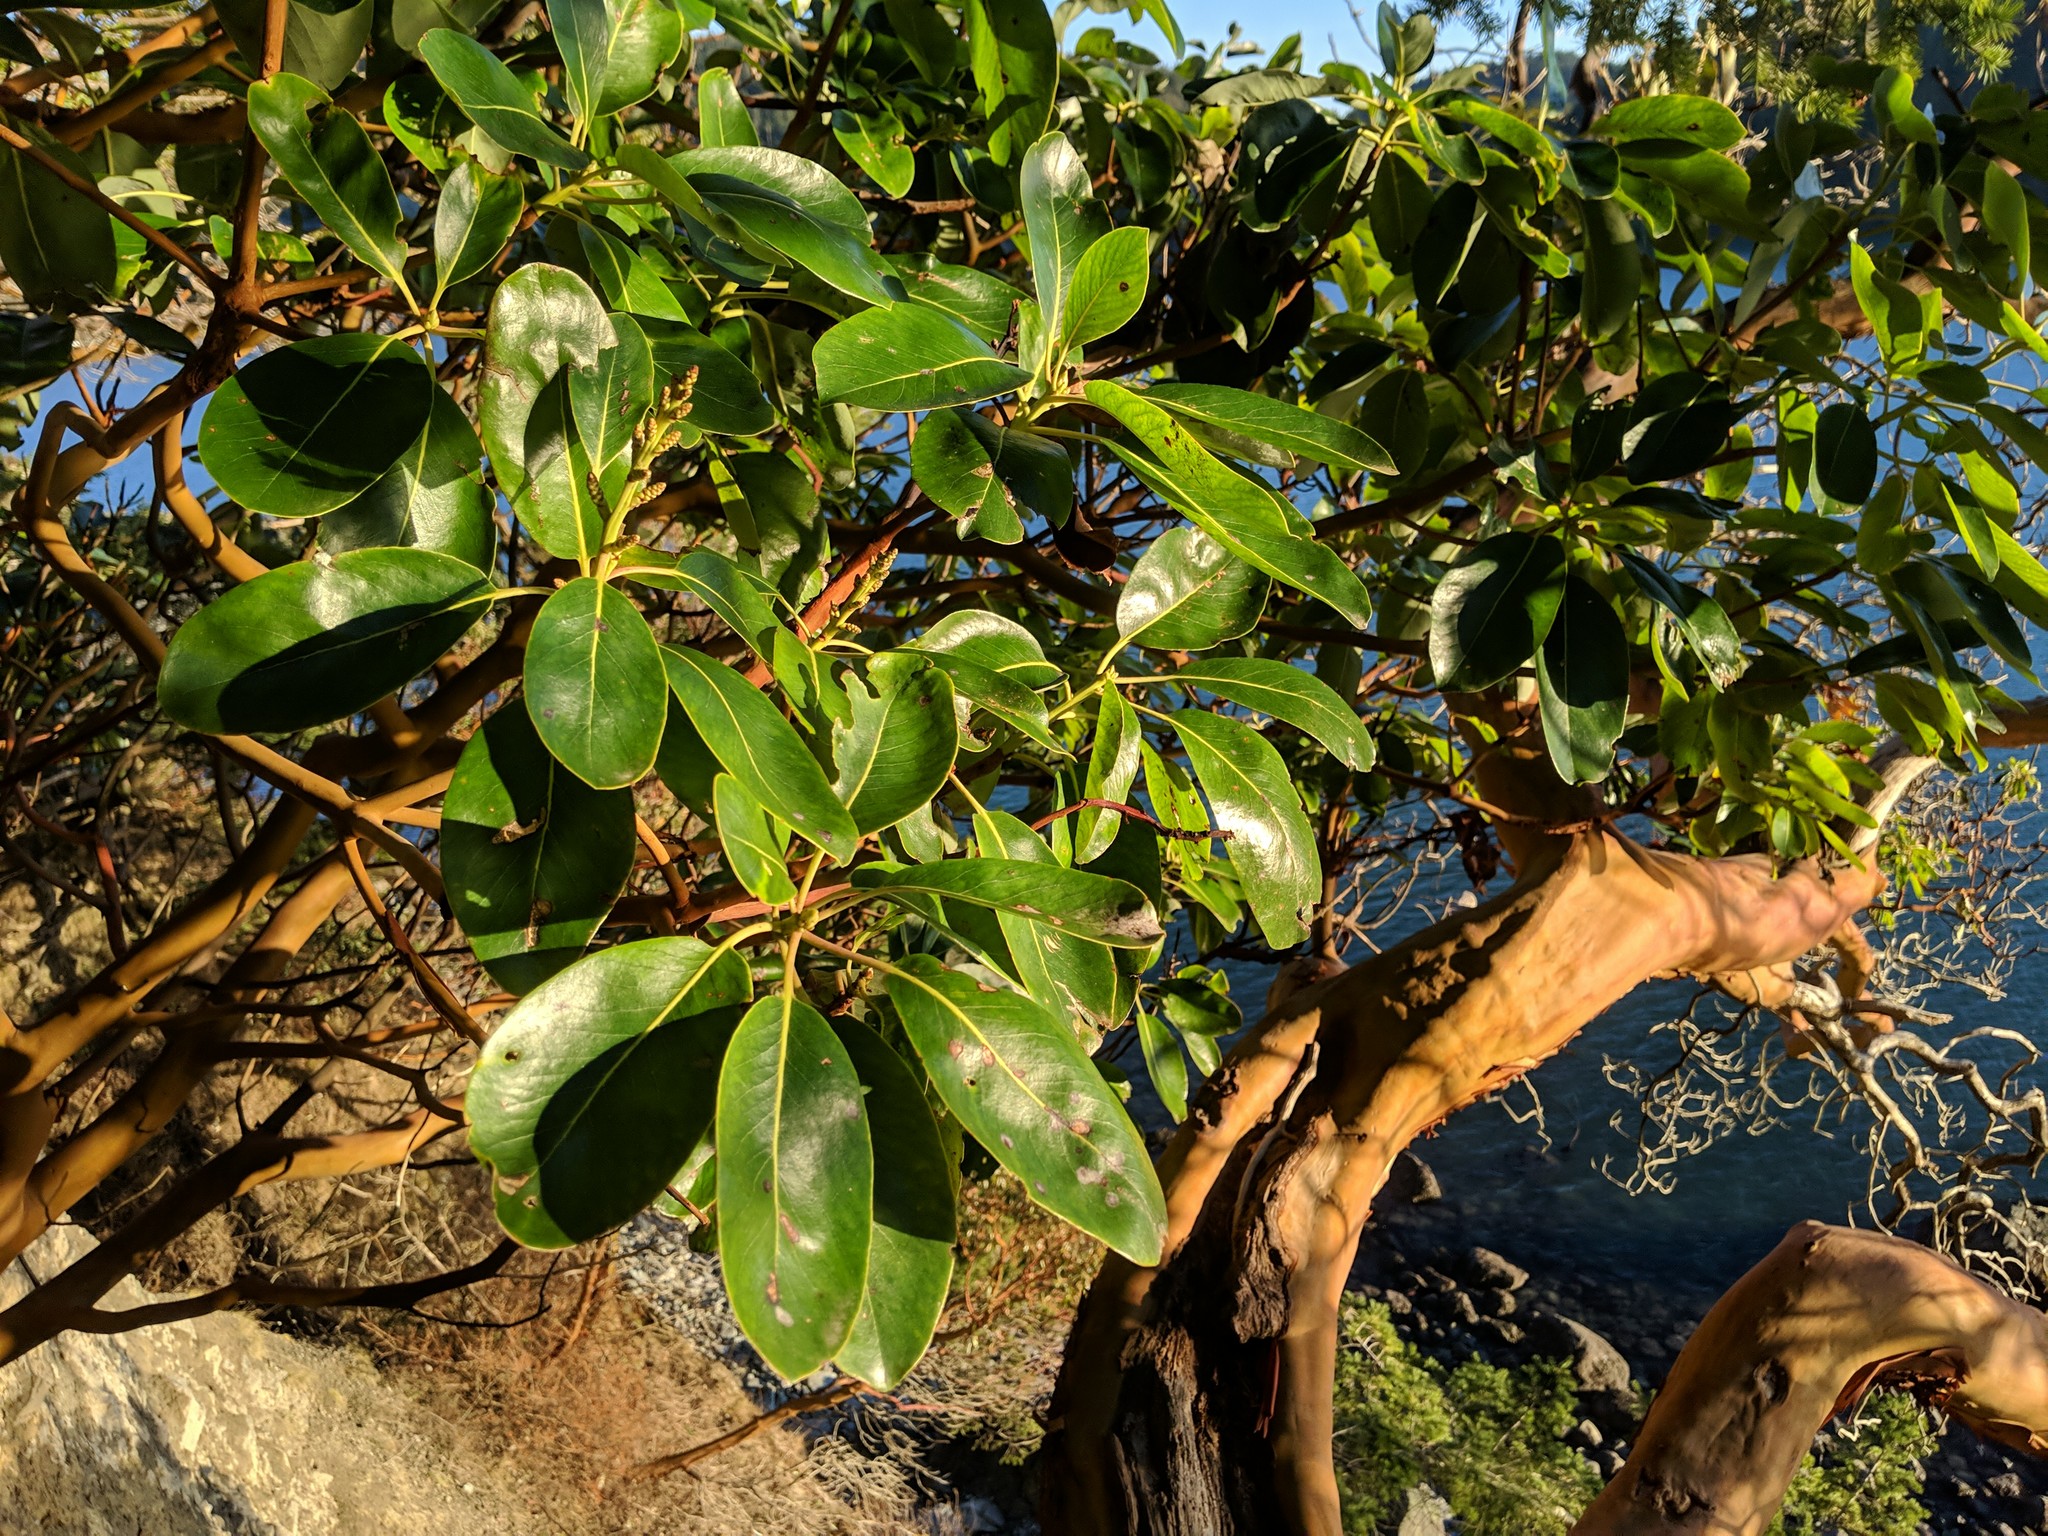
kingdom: Plantae
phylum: Tracheophyta
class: Magnoliopsida
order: Ericales
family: Ericaceae
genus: Arbutus
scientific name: Arbutus menziesii
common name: Pacific madrone
